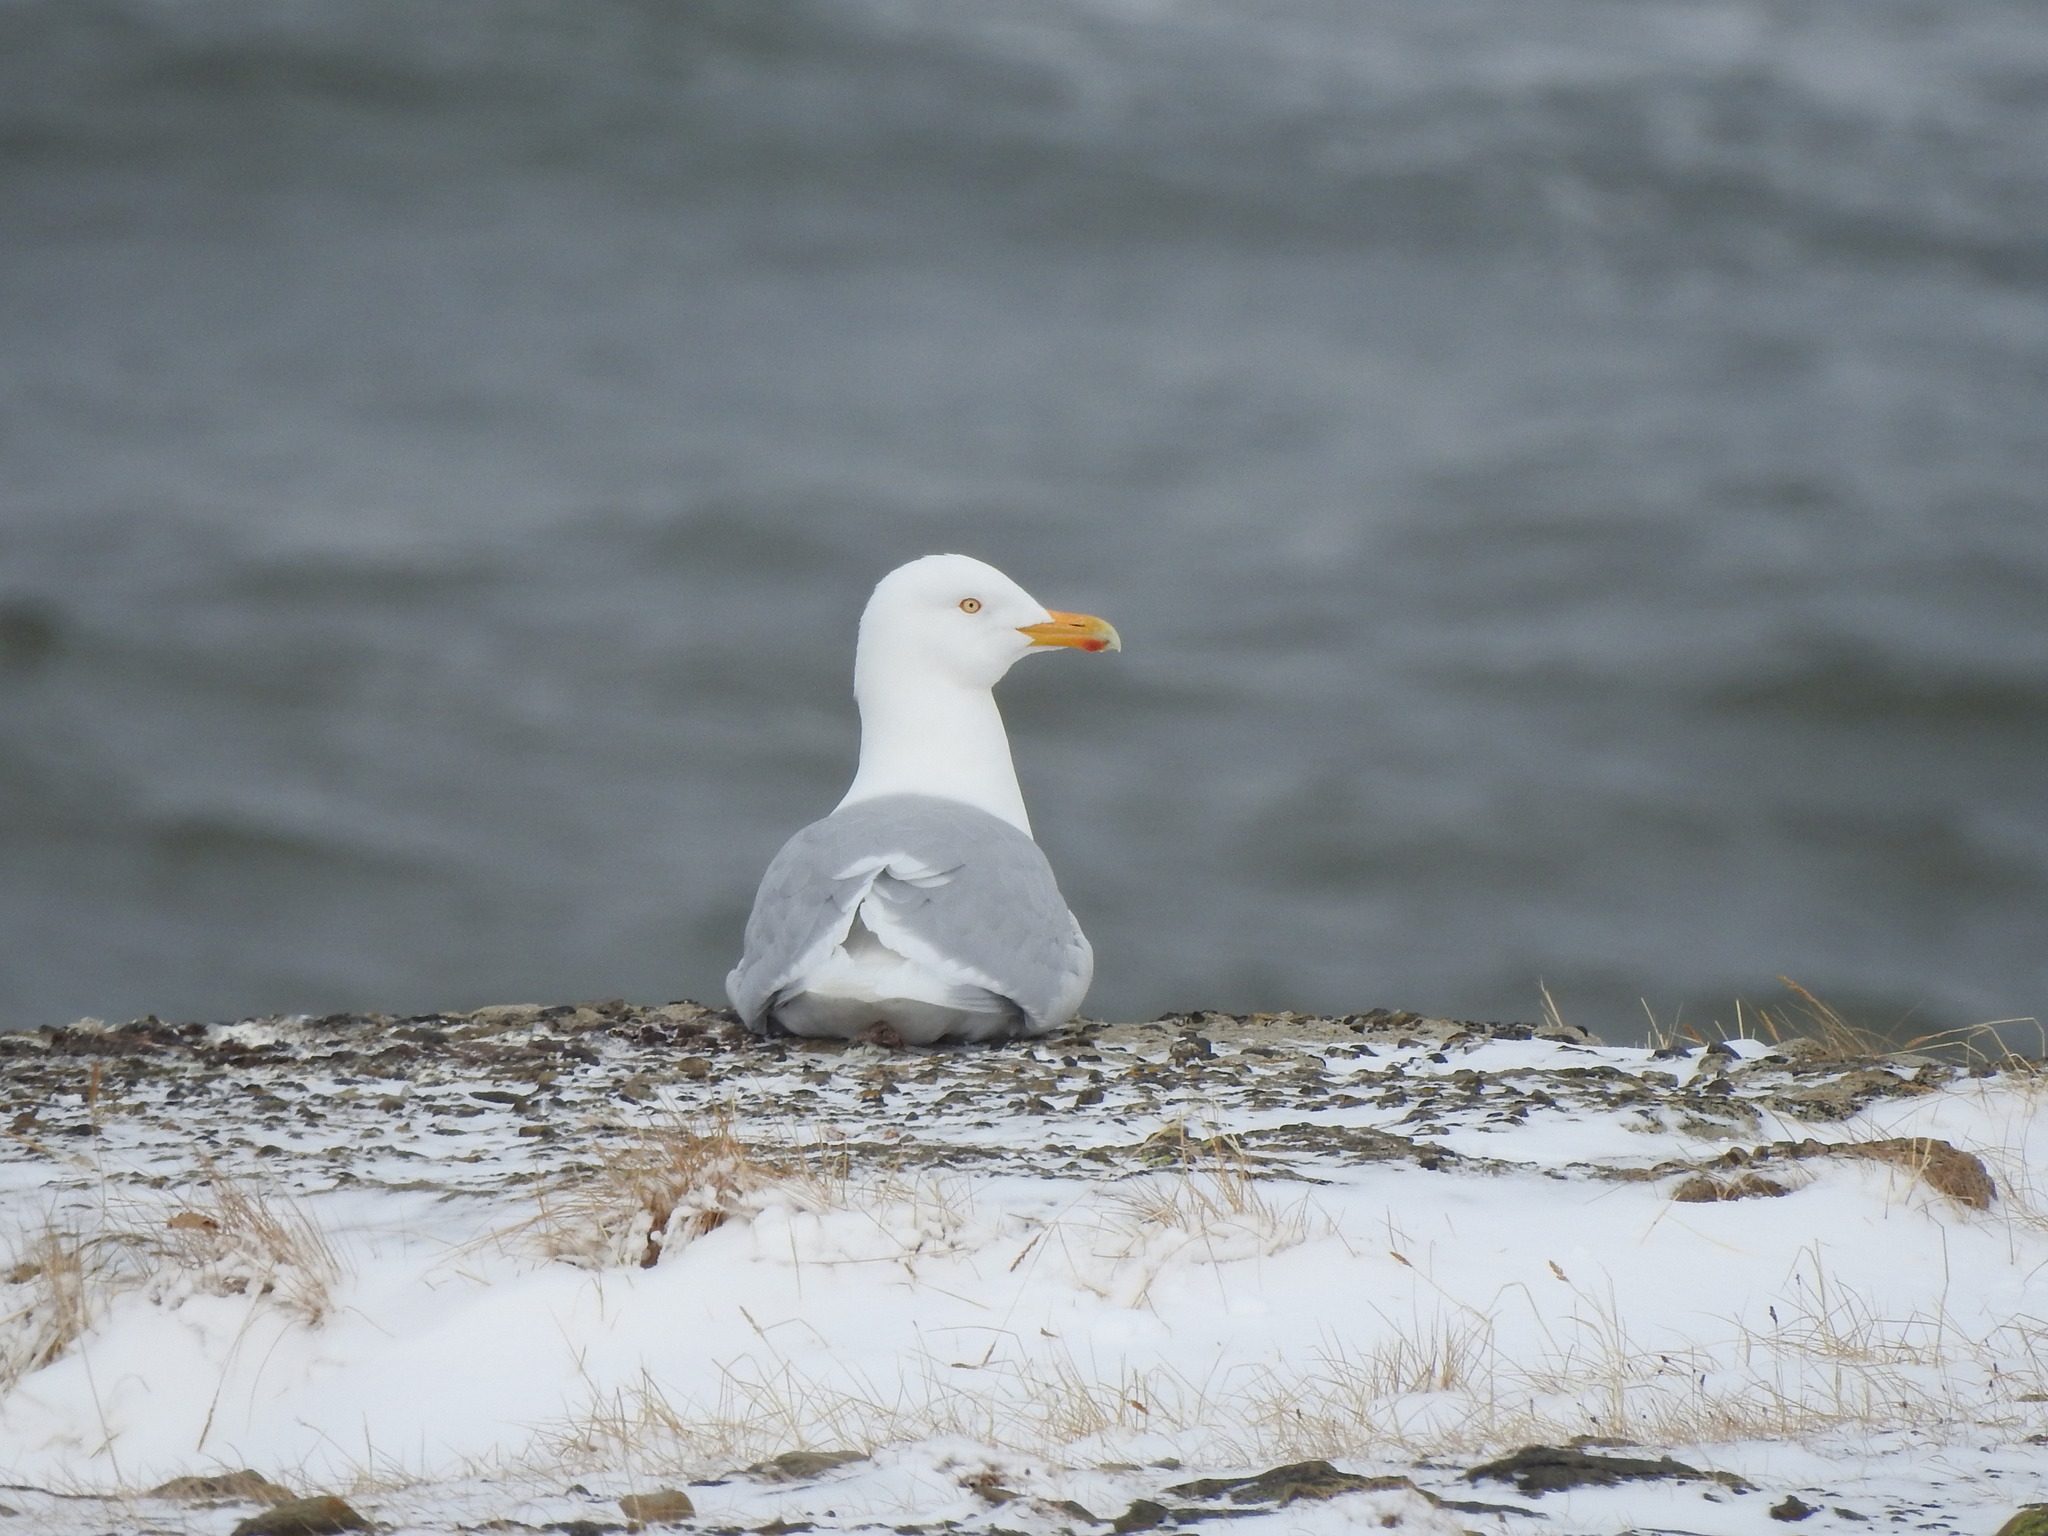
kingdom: Animalia
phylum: Chordata
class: Aves
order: Charadriiformes
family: Laridae
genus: Larus
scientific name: Larus hyperboreus
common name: Glaucous gull
